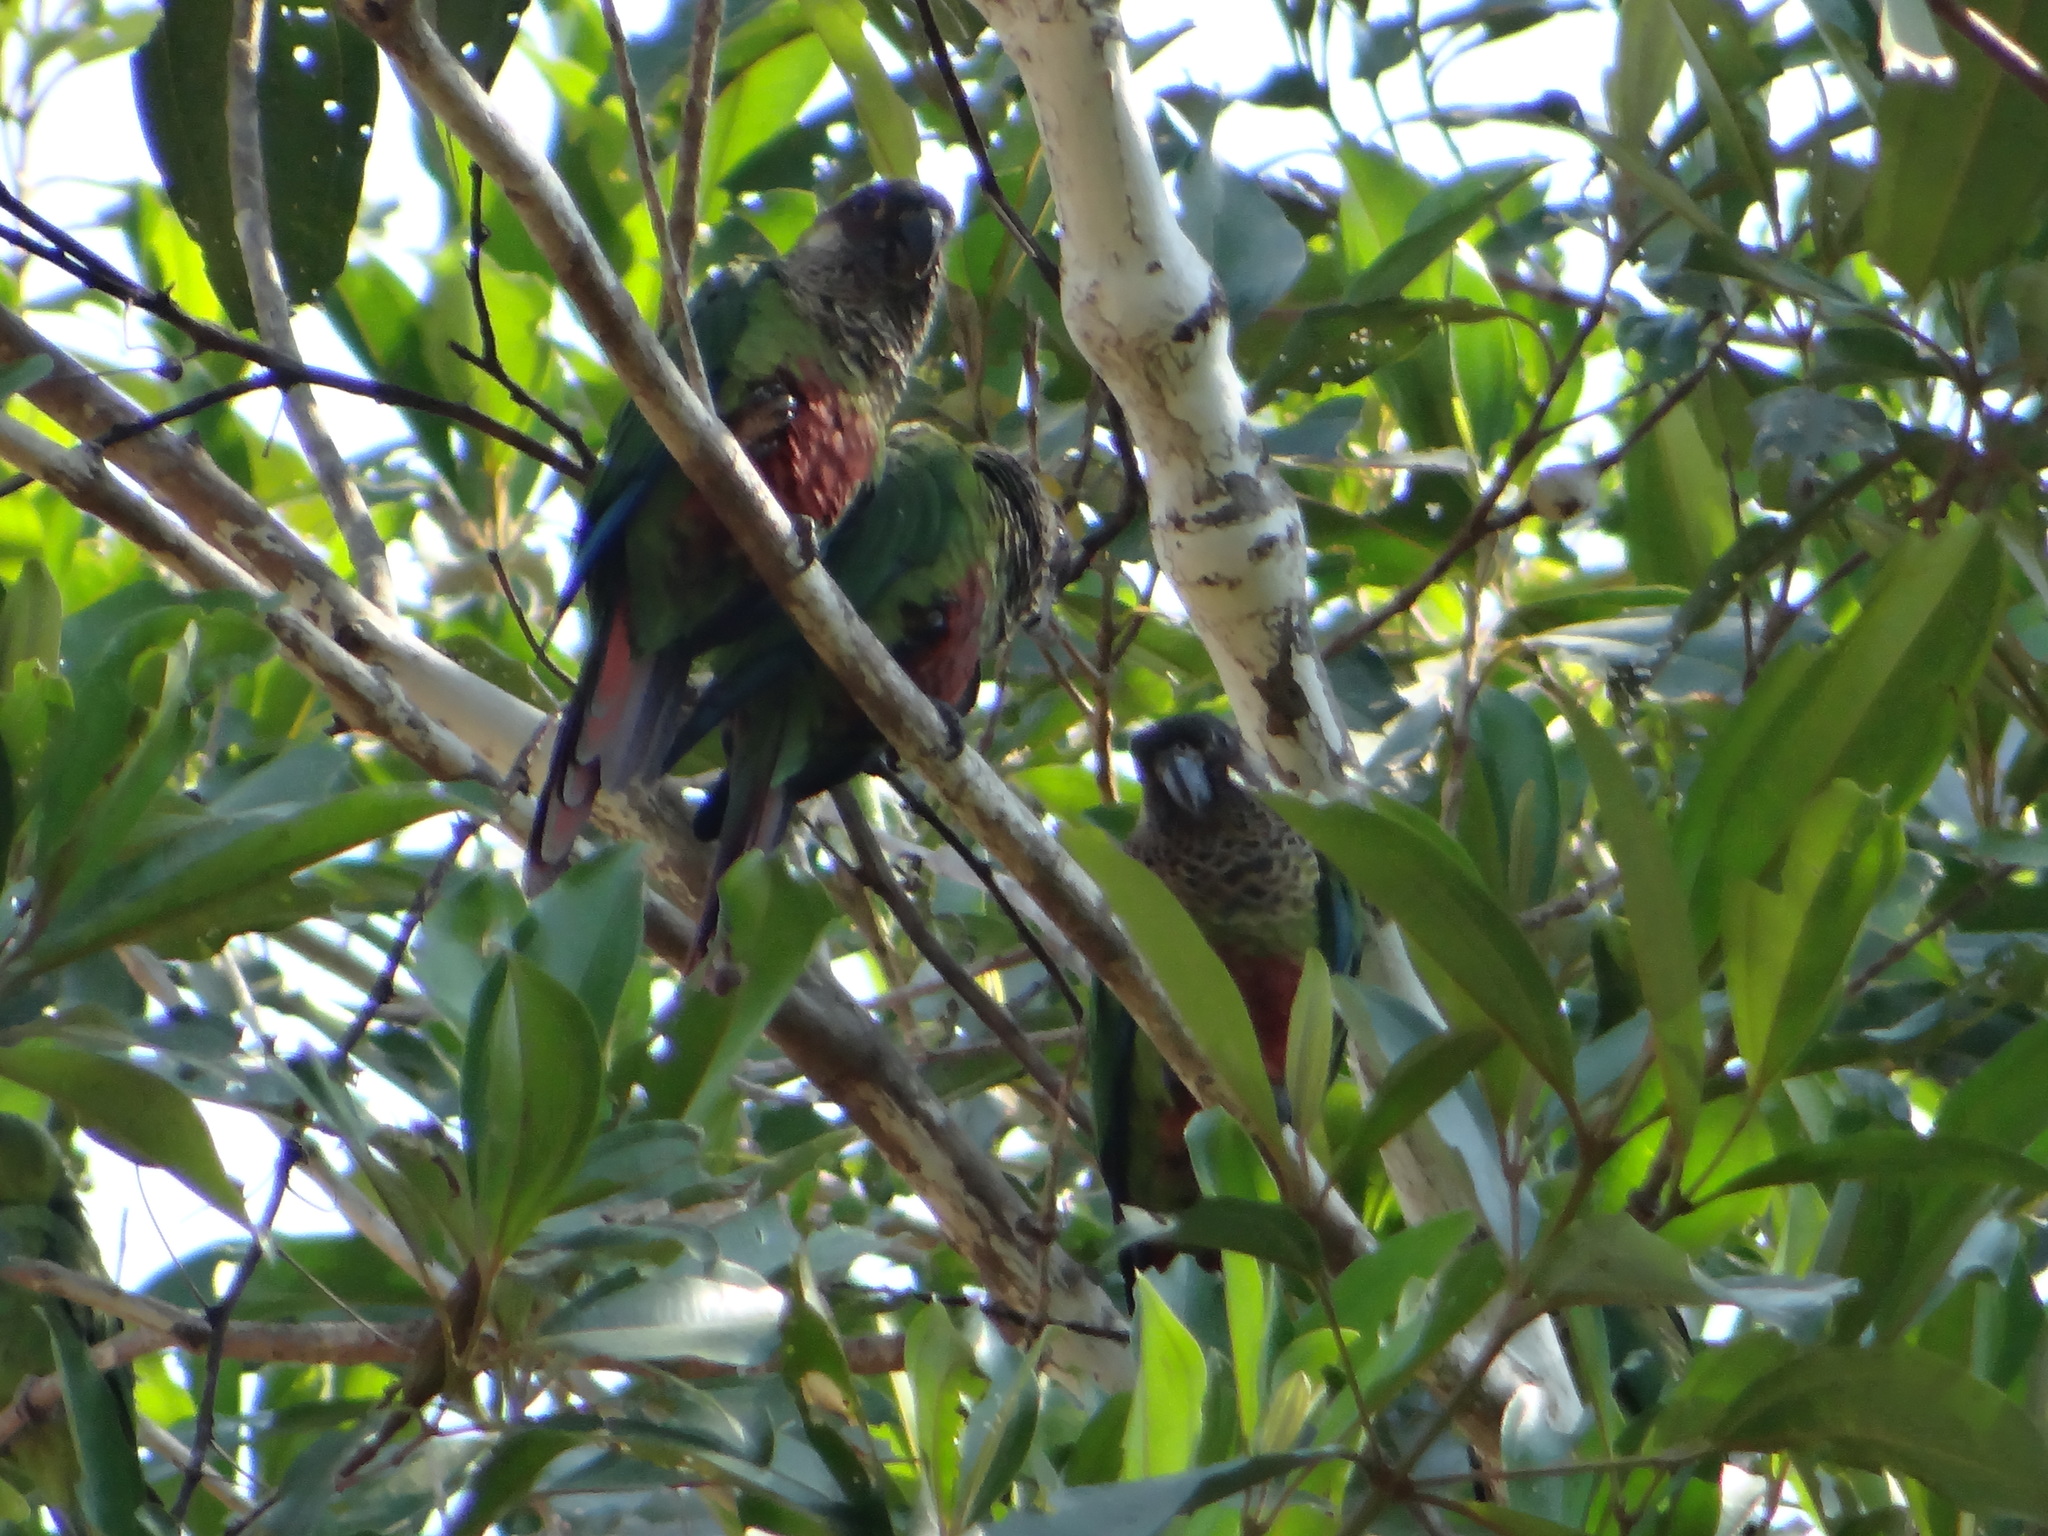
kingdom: Animalia
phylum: Chordata
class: Aves
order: Psittaciformes
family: Psittacidae
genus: Pyrrhura
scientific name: Pyrrhura picta
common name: Painted parakeet
